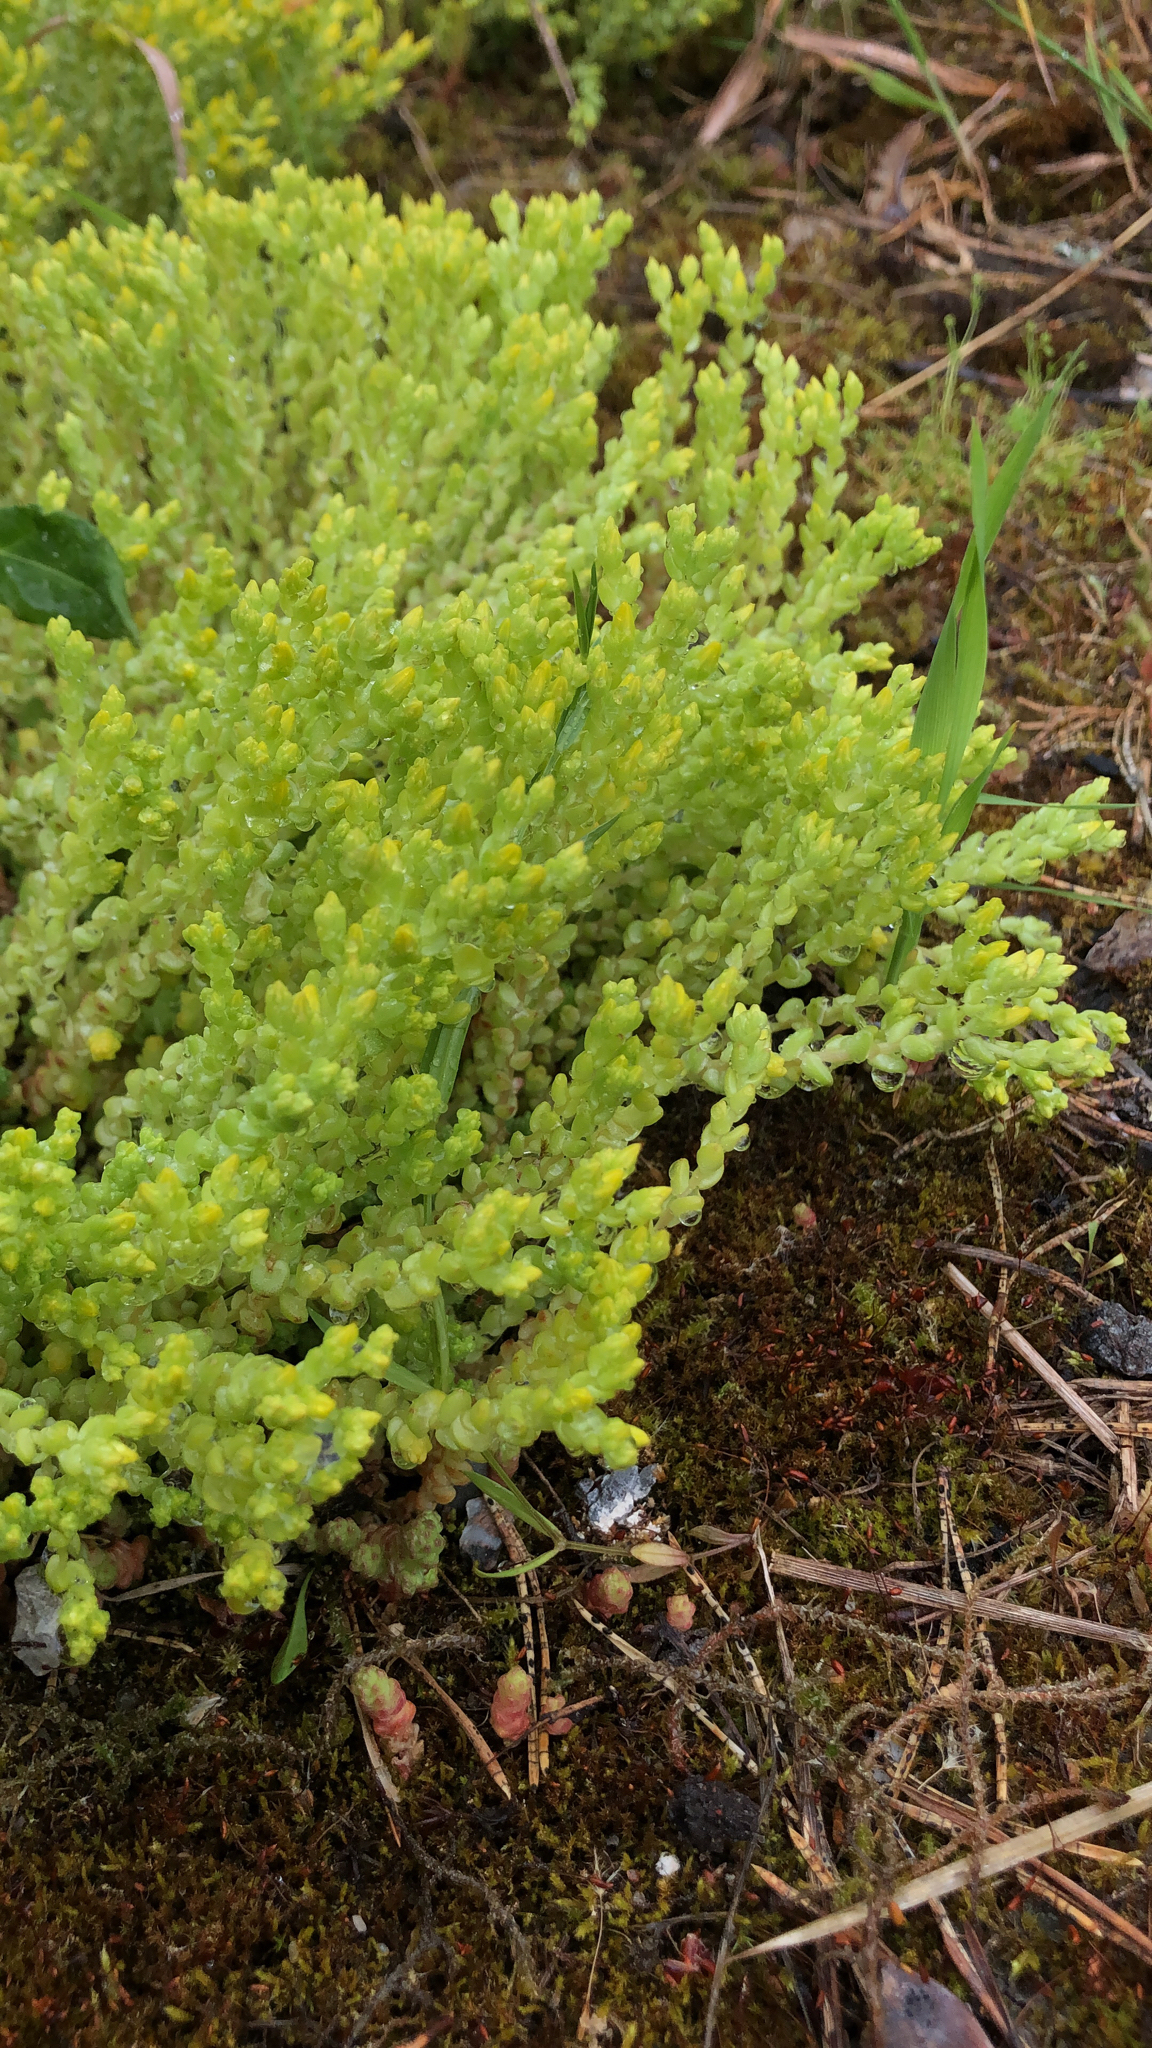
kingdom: Plantae
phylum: Tracheophyta
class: Magnoliopsida
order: Saxifragales
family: Crassulaceae
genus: Sedum
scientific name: Sedum acre
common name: Biting stonecrop
